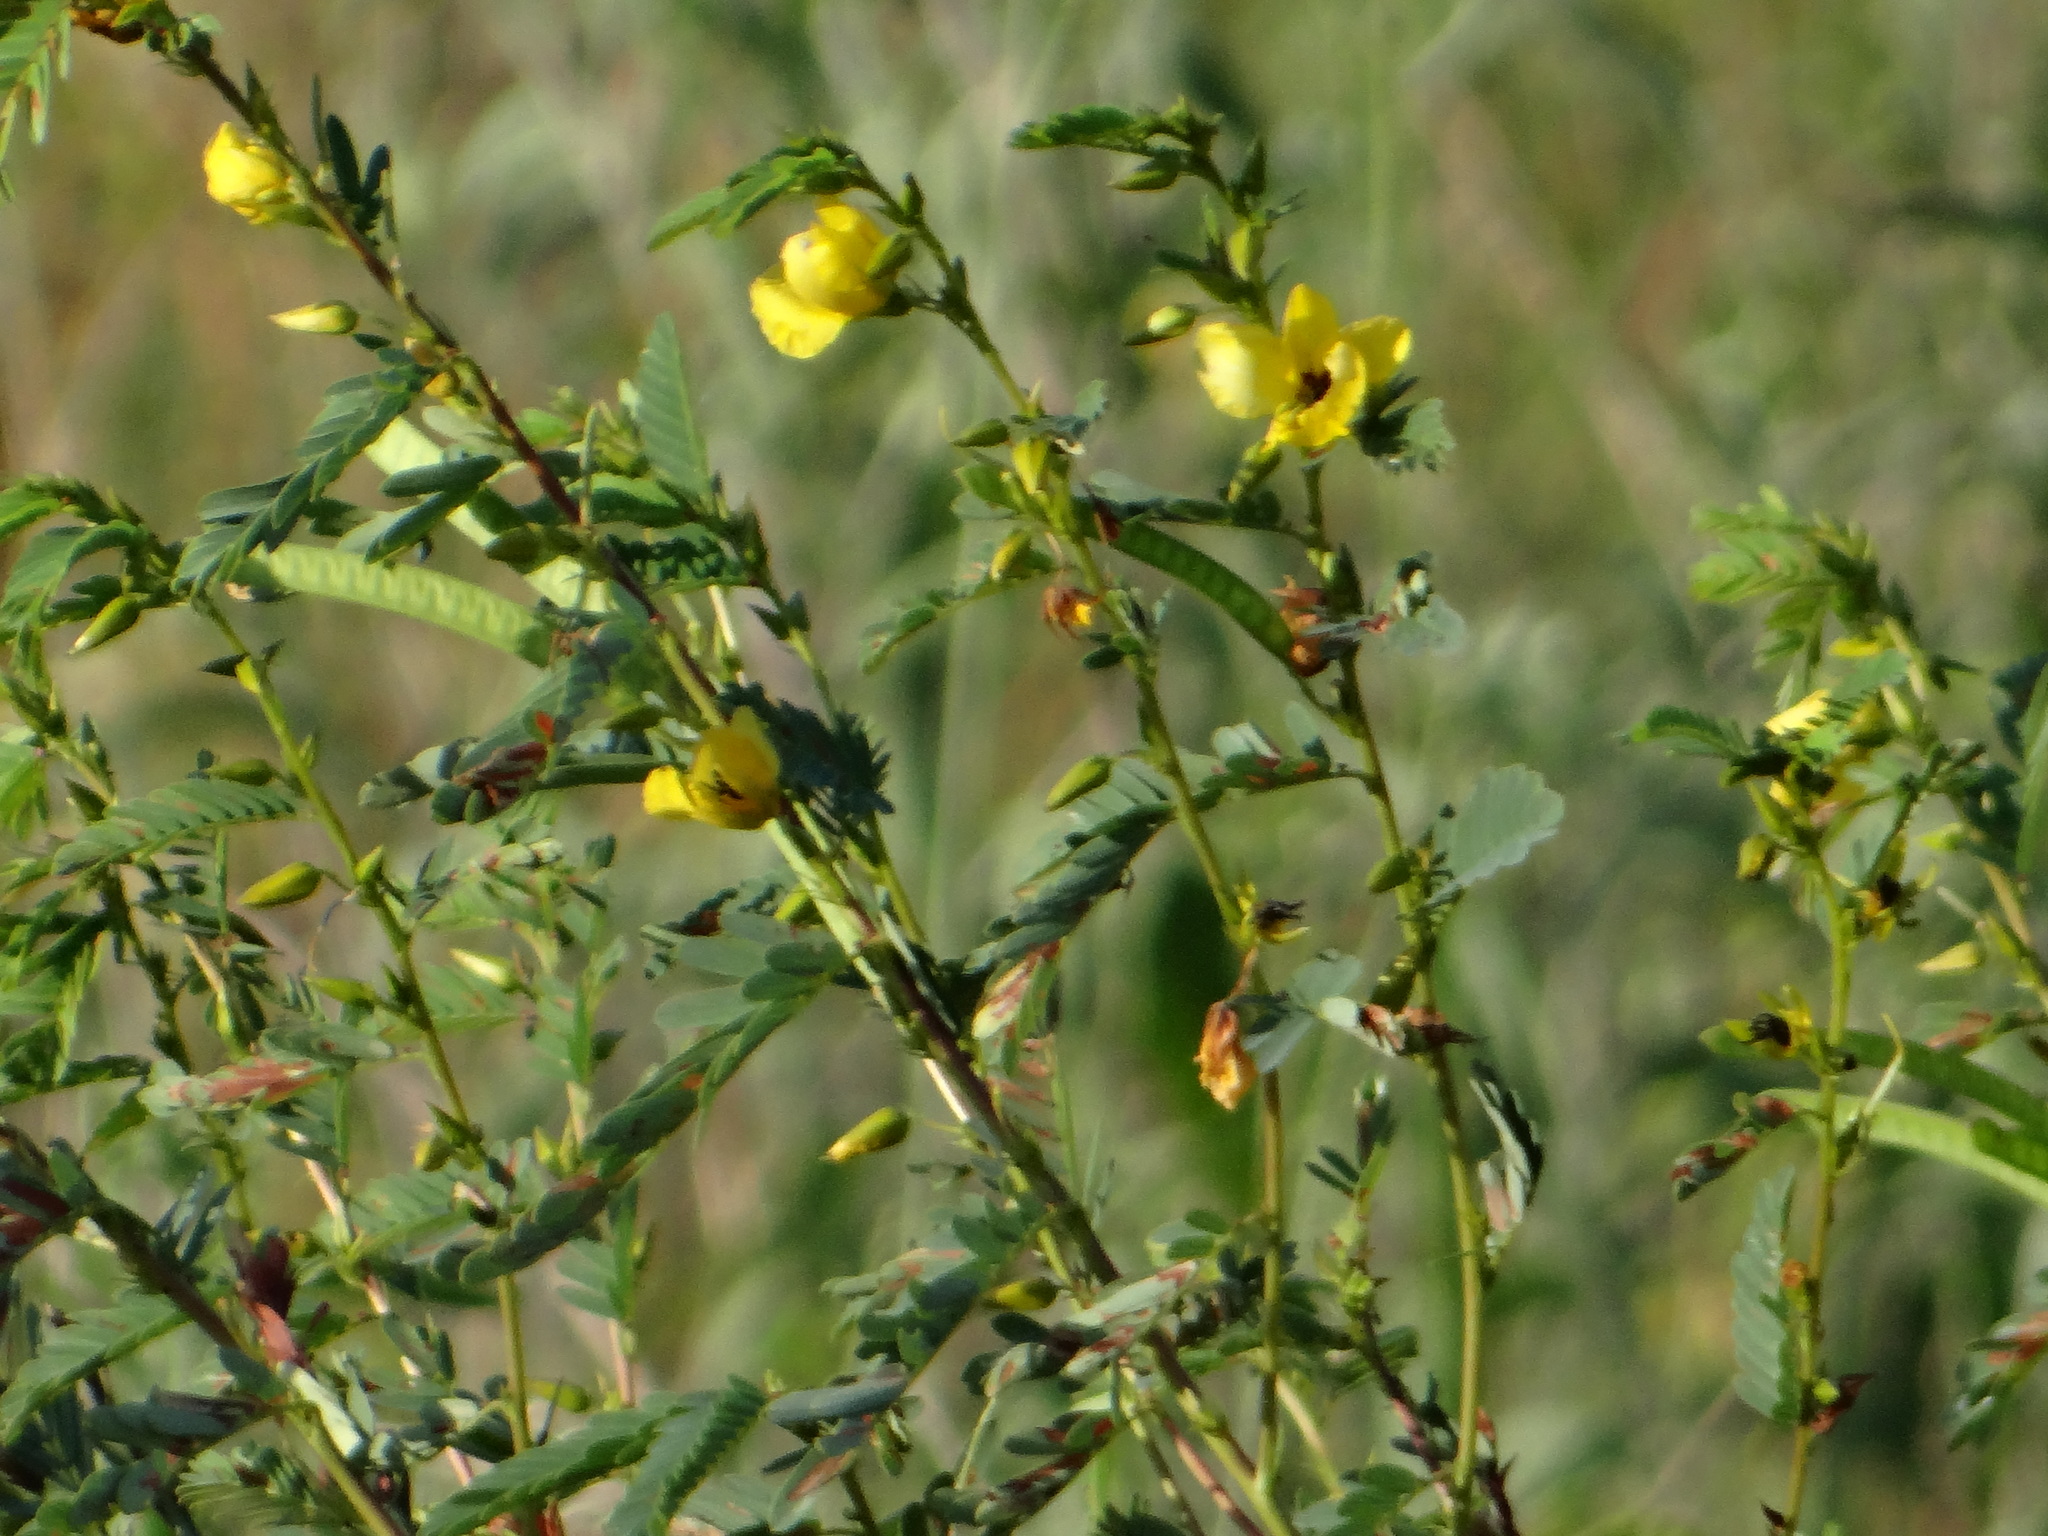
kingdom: Plantae
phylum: Tracheophyta
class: Magnoliopsida
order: Fabales
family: Fabaceae
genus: Chamaecrista
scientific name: Chamaecrista fasciculata
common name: Golden cassia
